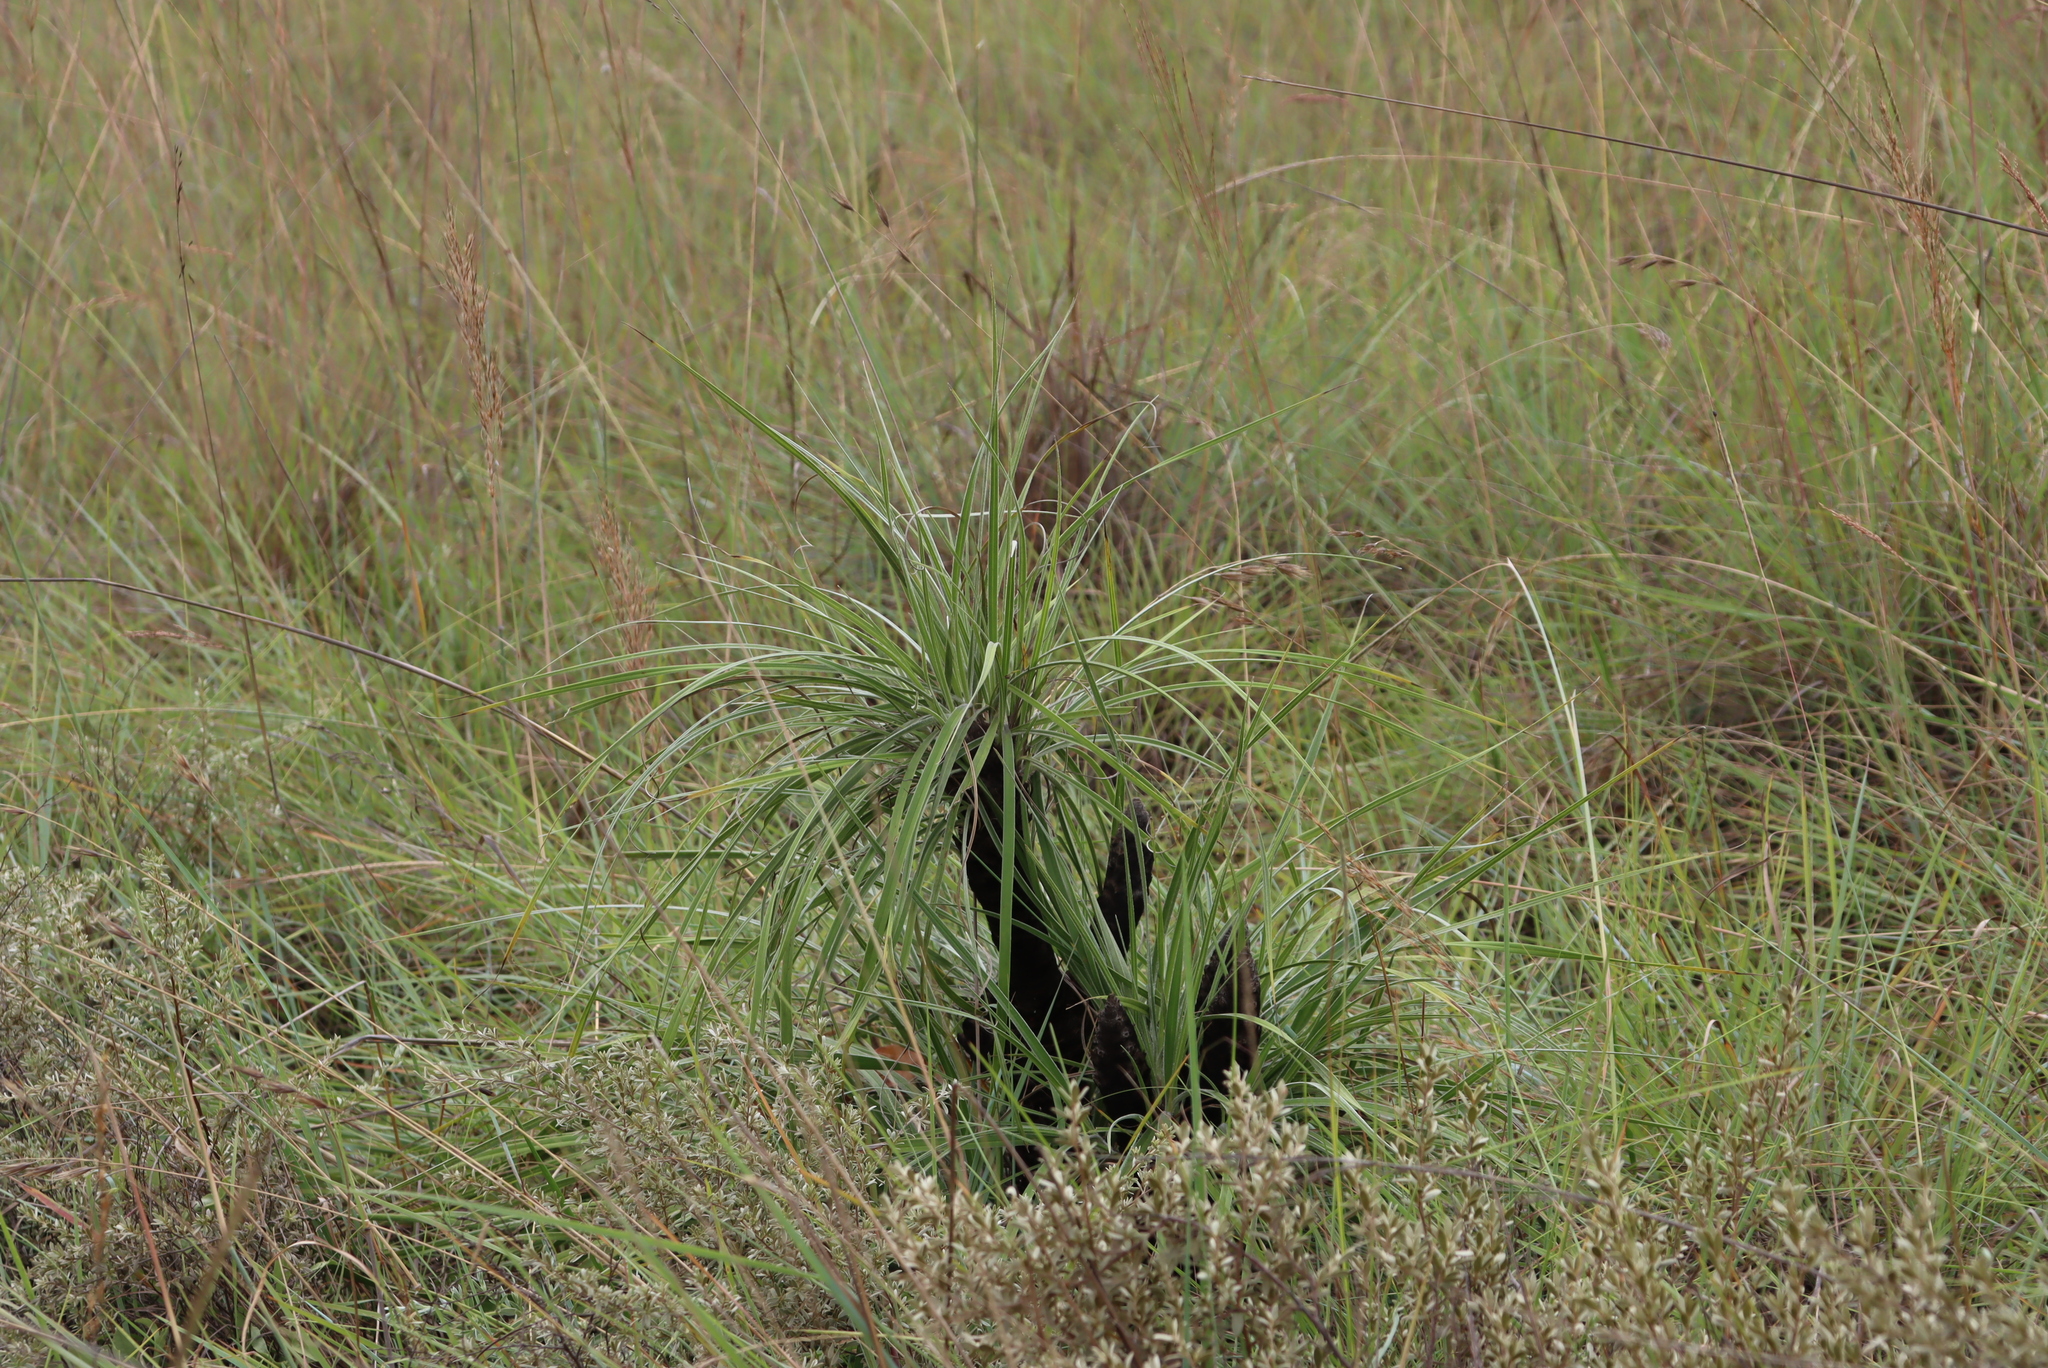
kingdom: Plantae
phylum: Tracheophyta
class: Liliopsida
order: Pandanales
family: Velloziaceae
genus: Xerophyta
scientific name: Xerophyta retinervis
